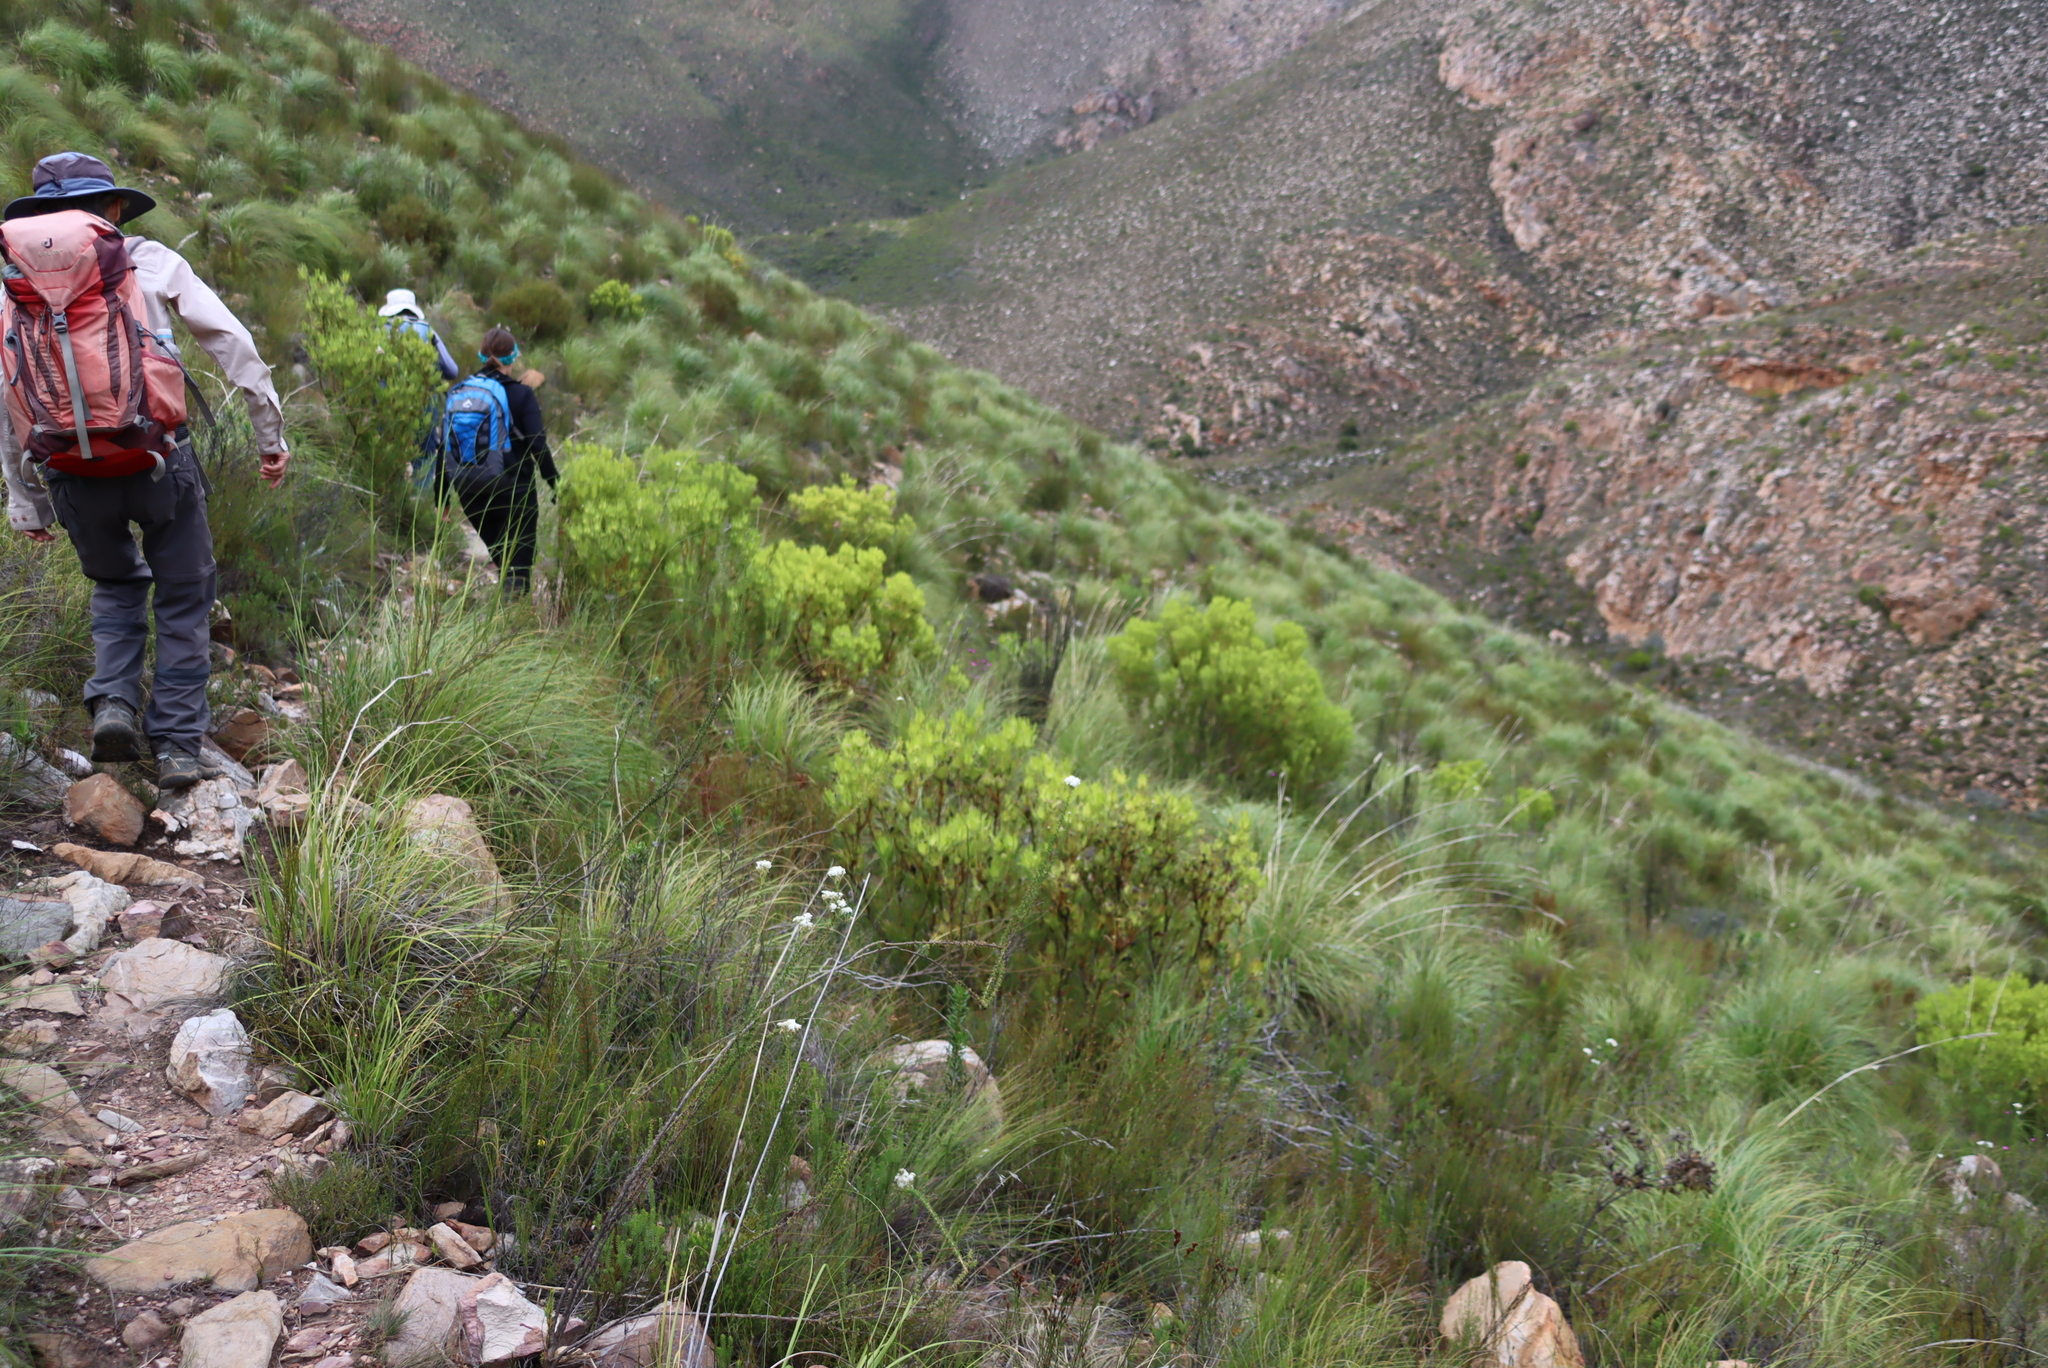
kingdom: Plantae
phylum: Tracheophyta
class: Magnoliopsida
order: Proteales
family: Proteaceae
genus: Leucadendron
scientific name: Leucadendron salignum
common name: Common sunshine conebush
